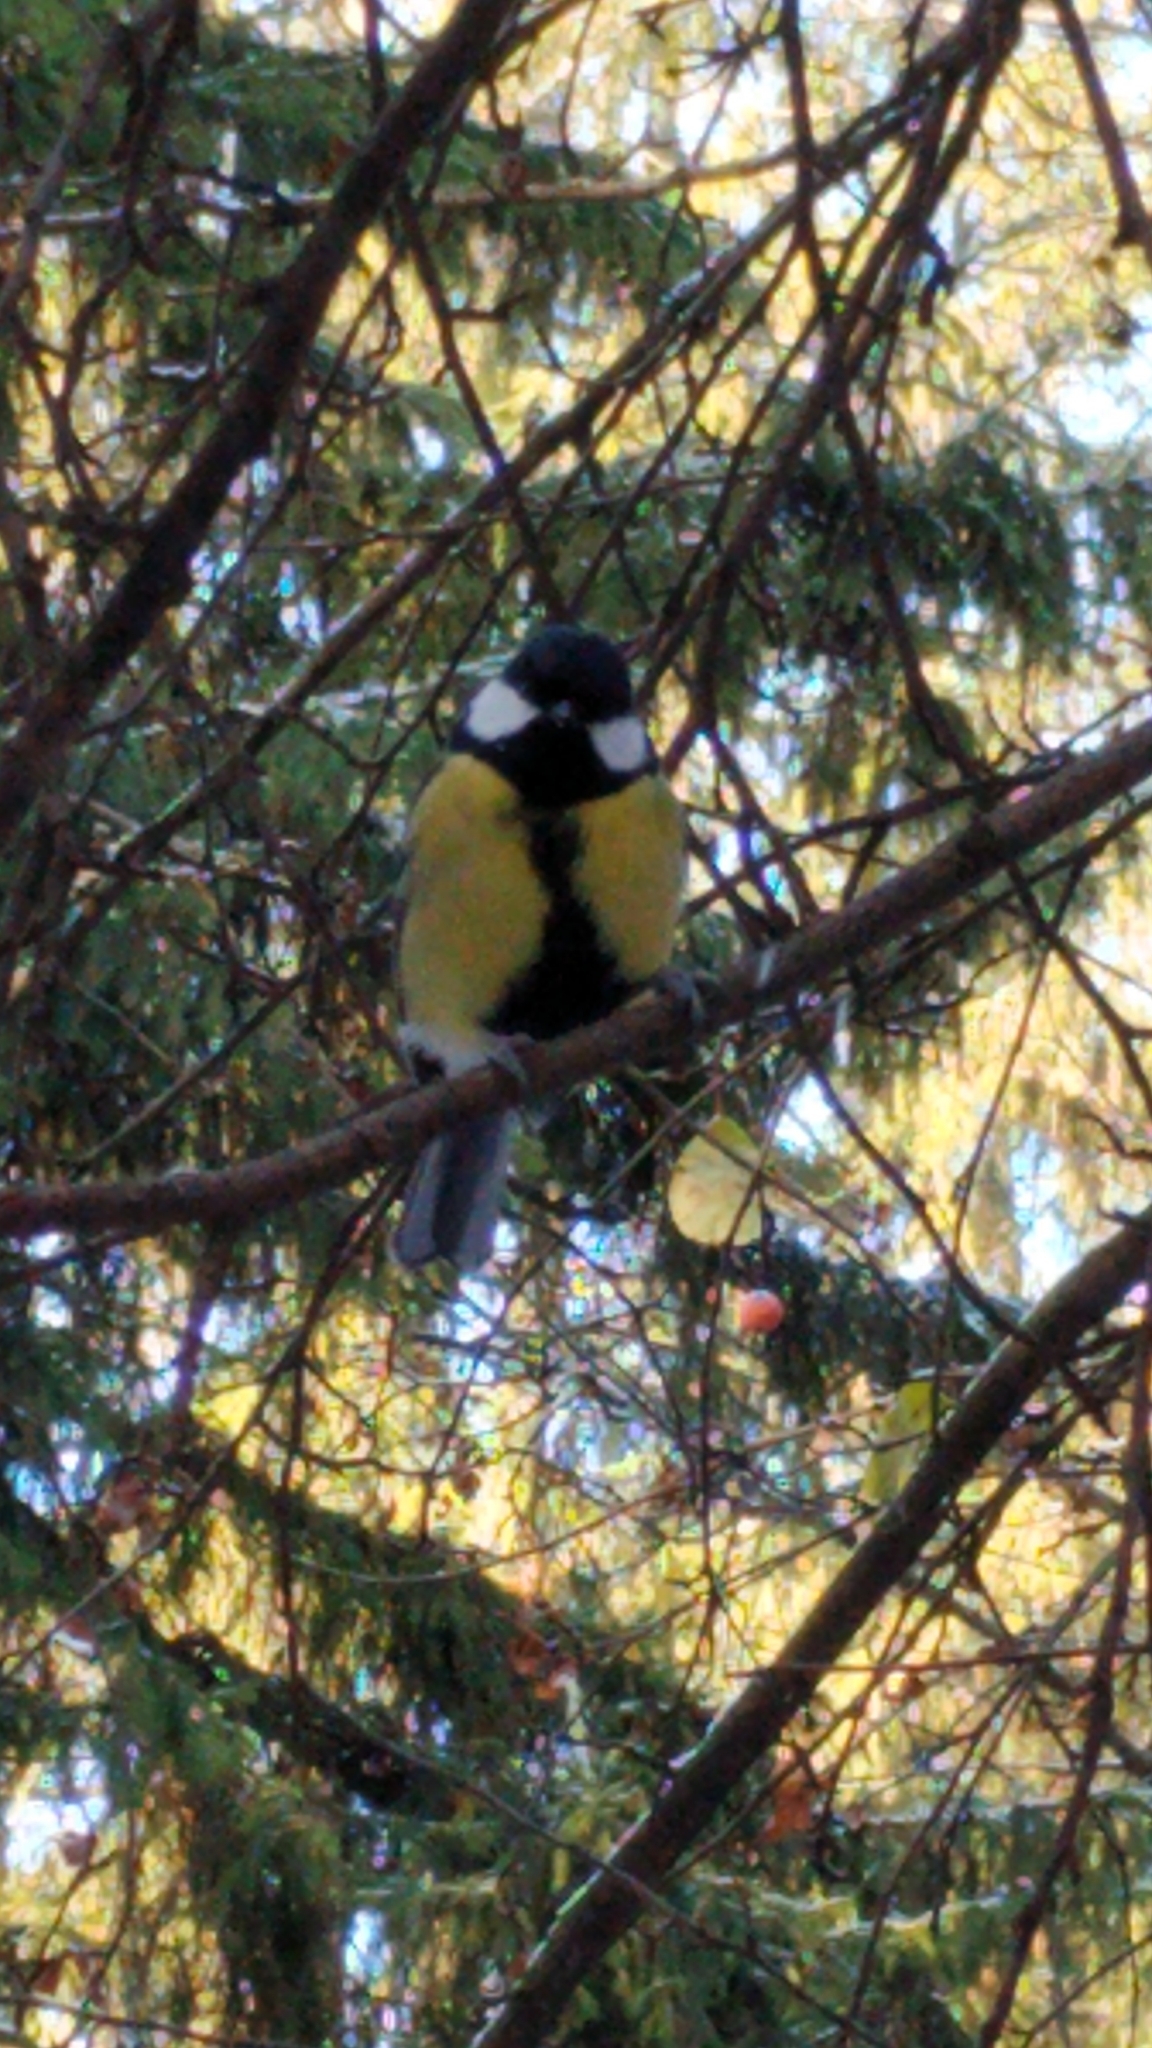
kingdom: Animalia
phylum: Chordata
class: Aves
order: Passeriformes
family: Paridae
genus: Parus
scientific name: Parus major
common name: Great tit
